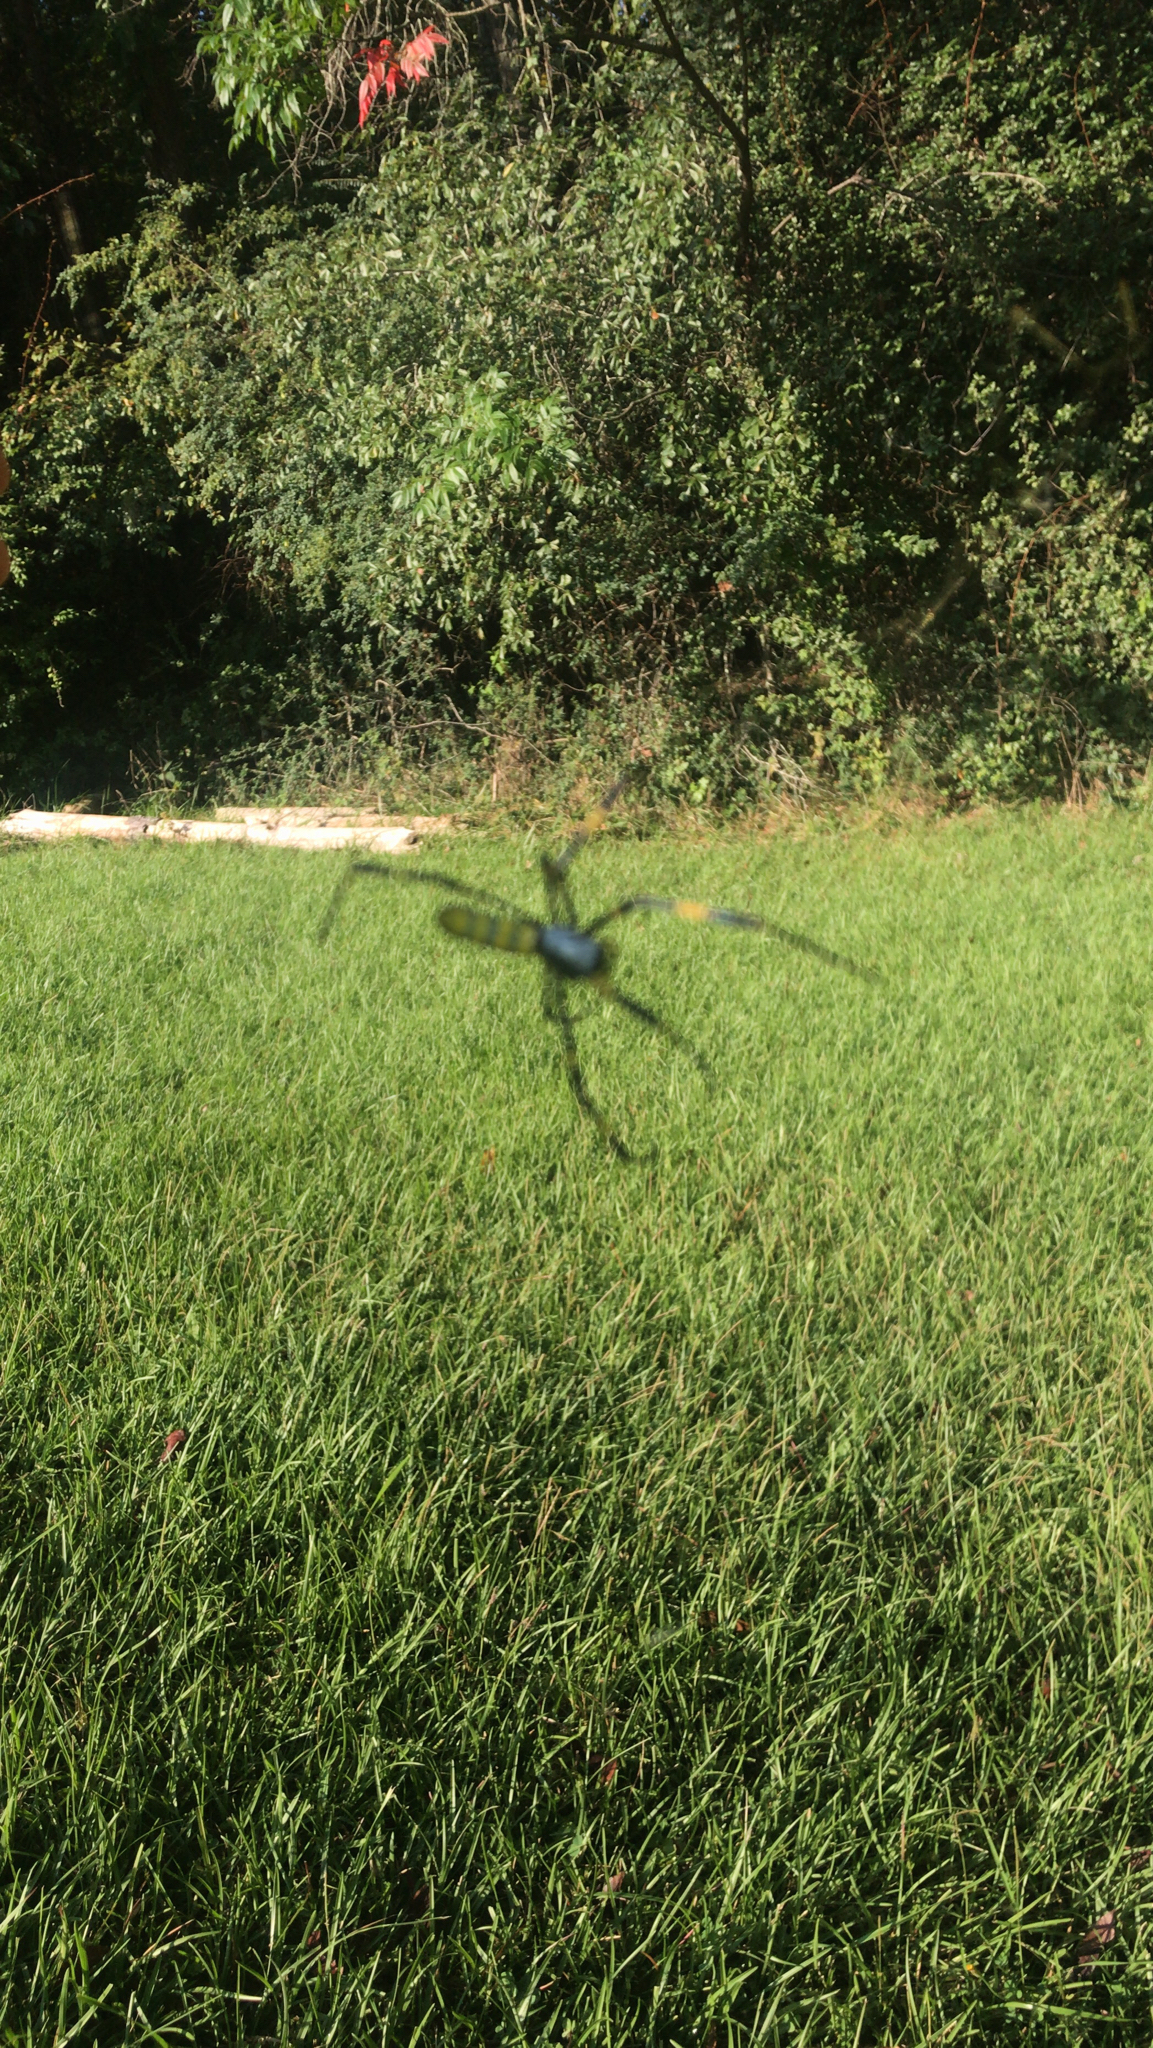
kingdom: Animalia
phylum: Arthropoda
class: Arachnida
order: Araneae
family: Araneidae
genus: Trichonephila
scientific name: Trichonephila clavata
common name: Jorō spider
